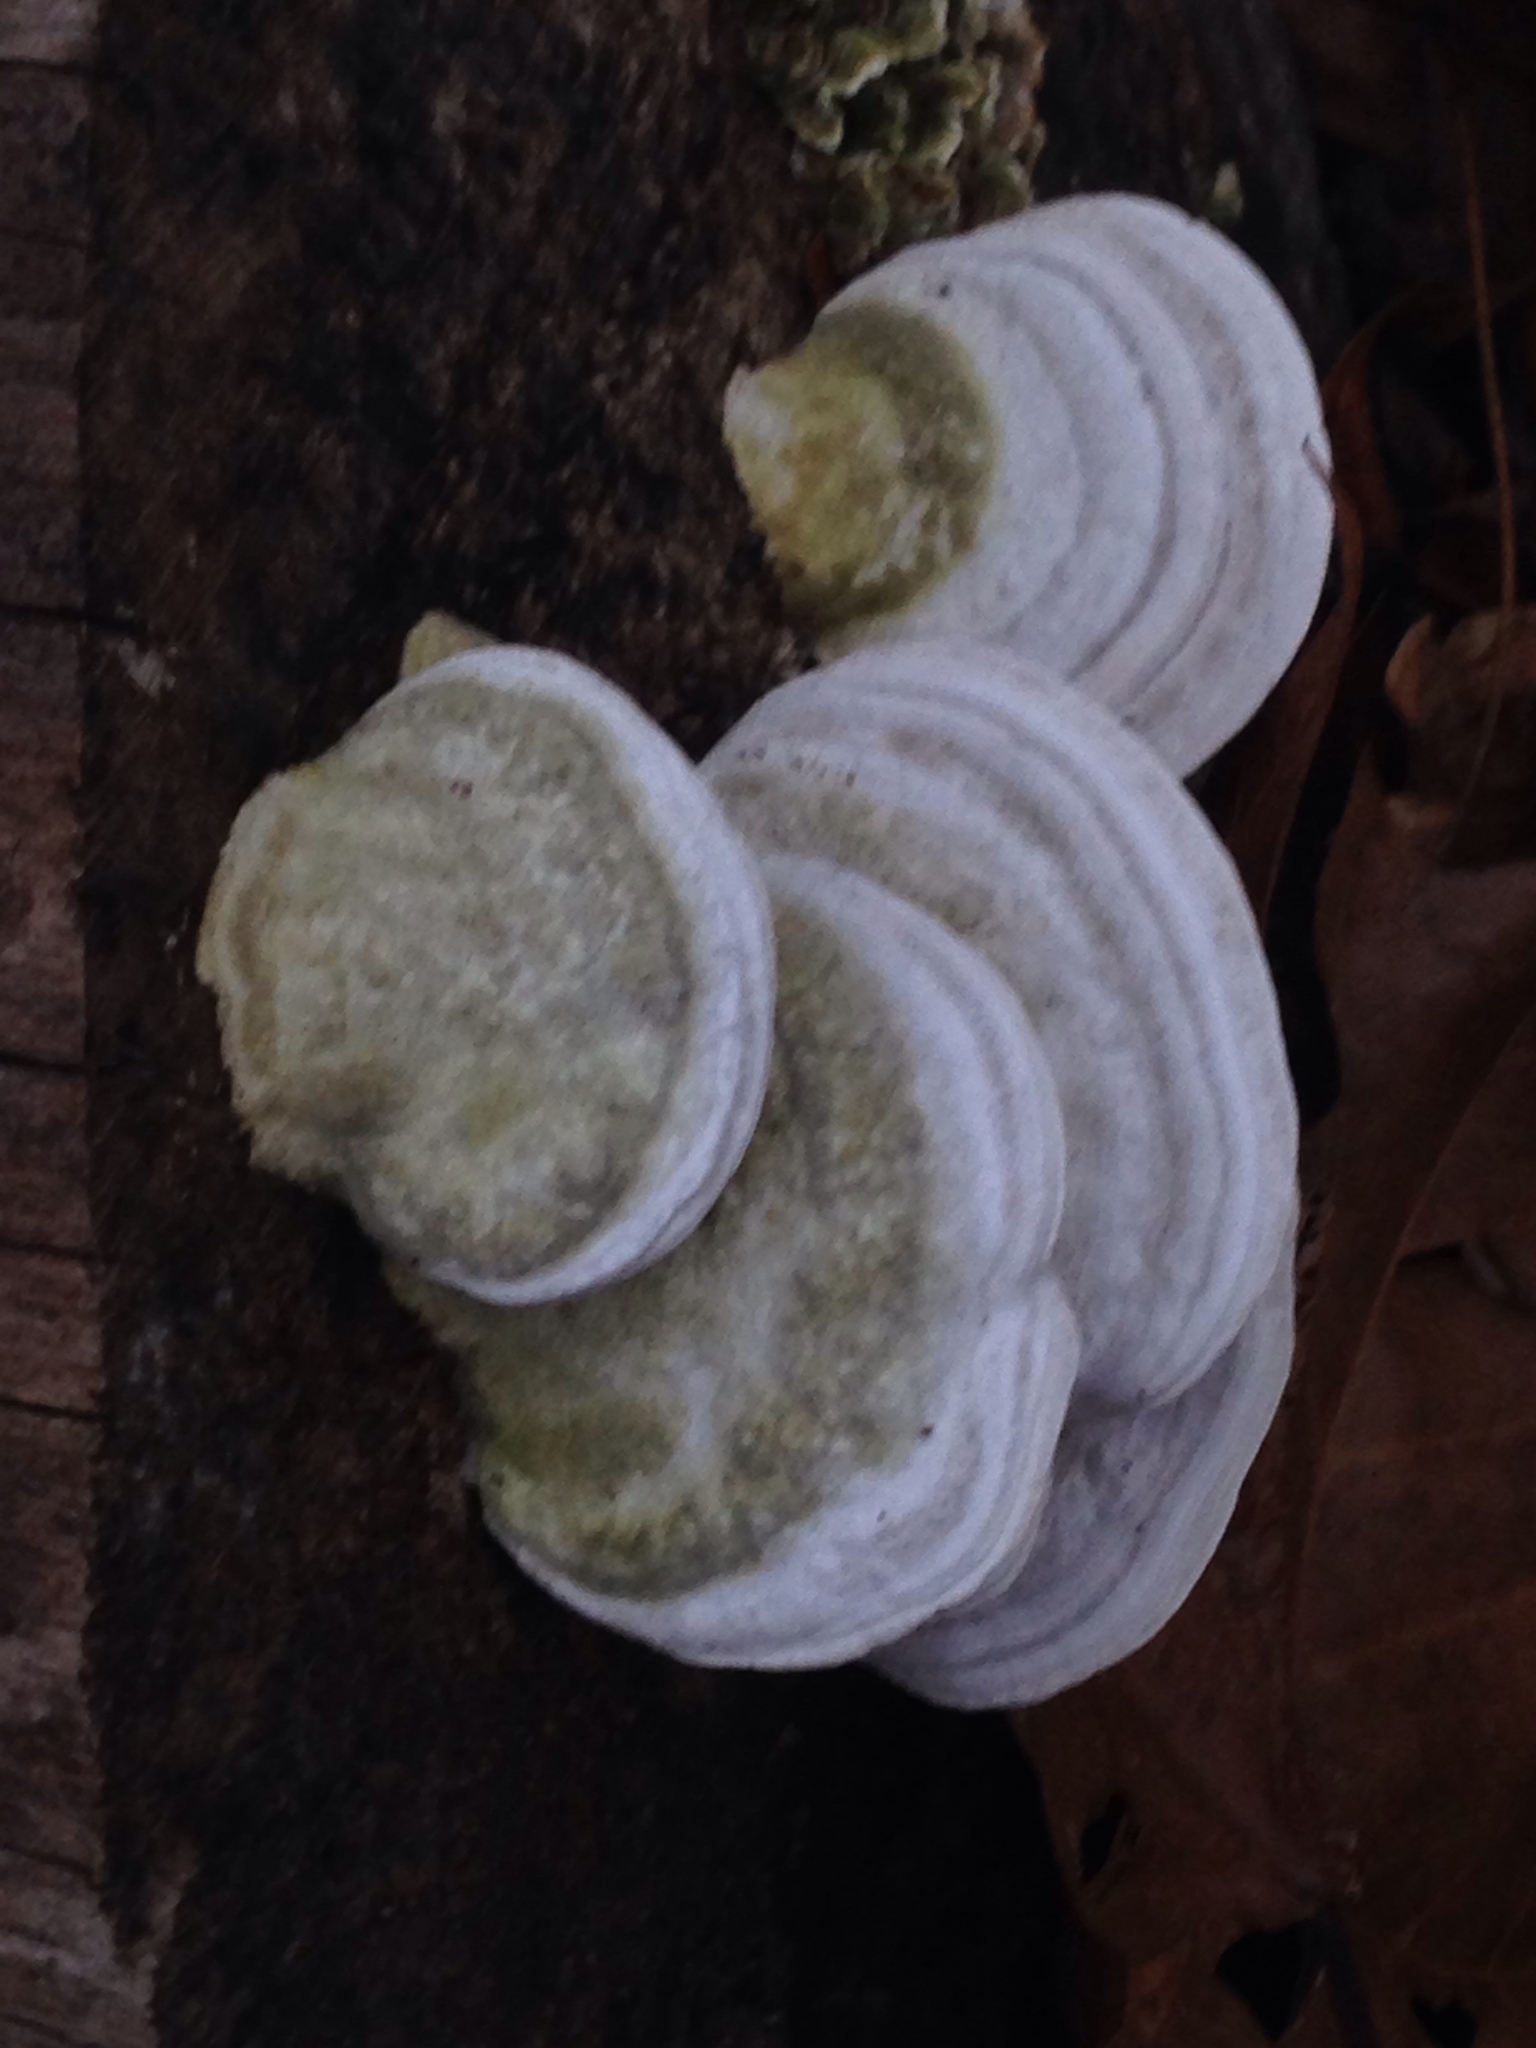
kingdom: Fungi
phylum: Basidiomycota
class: Agaricomycetes
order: Polyporales
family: Polyporaceae
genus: Trametes
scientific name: Trametes gibbosa
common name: Lumpy bracket
